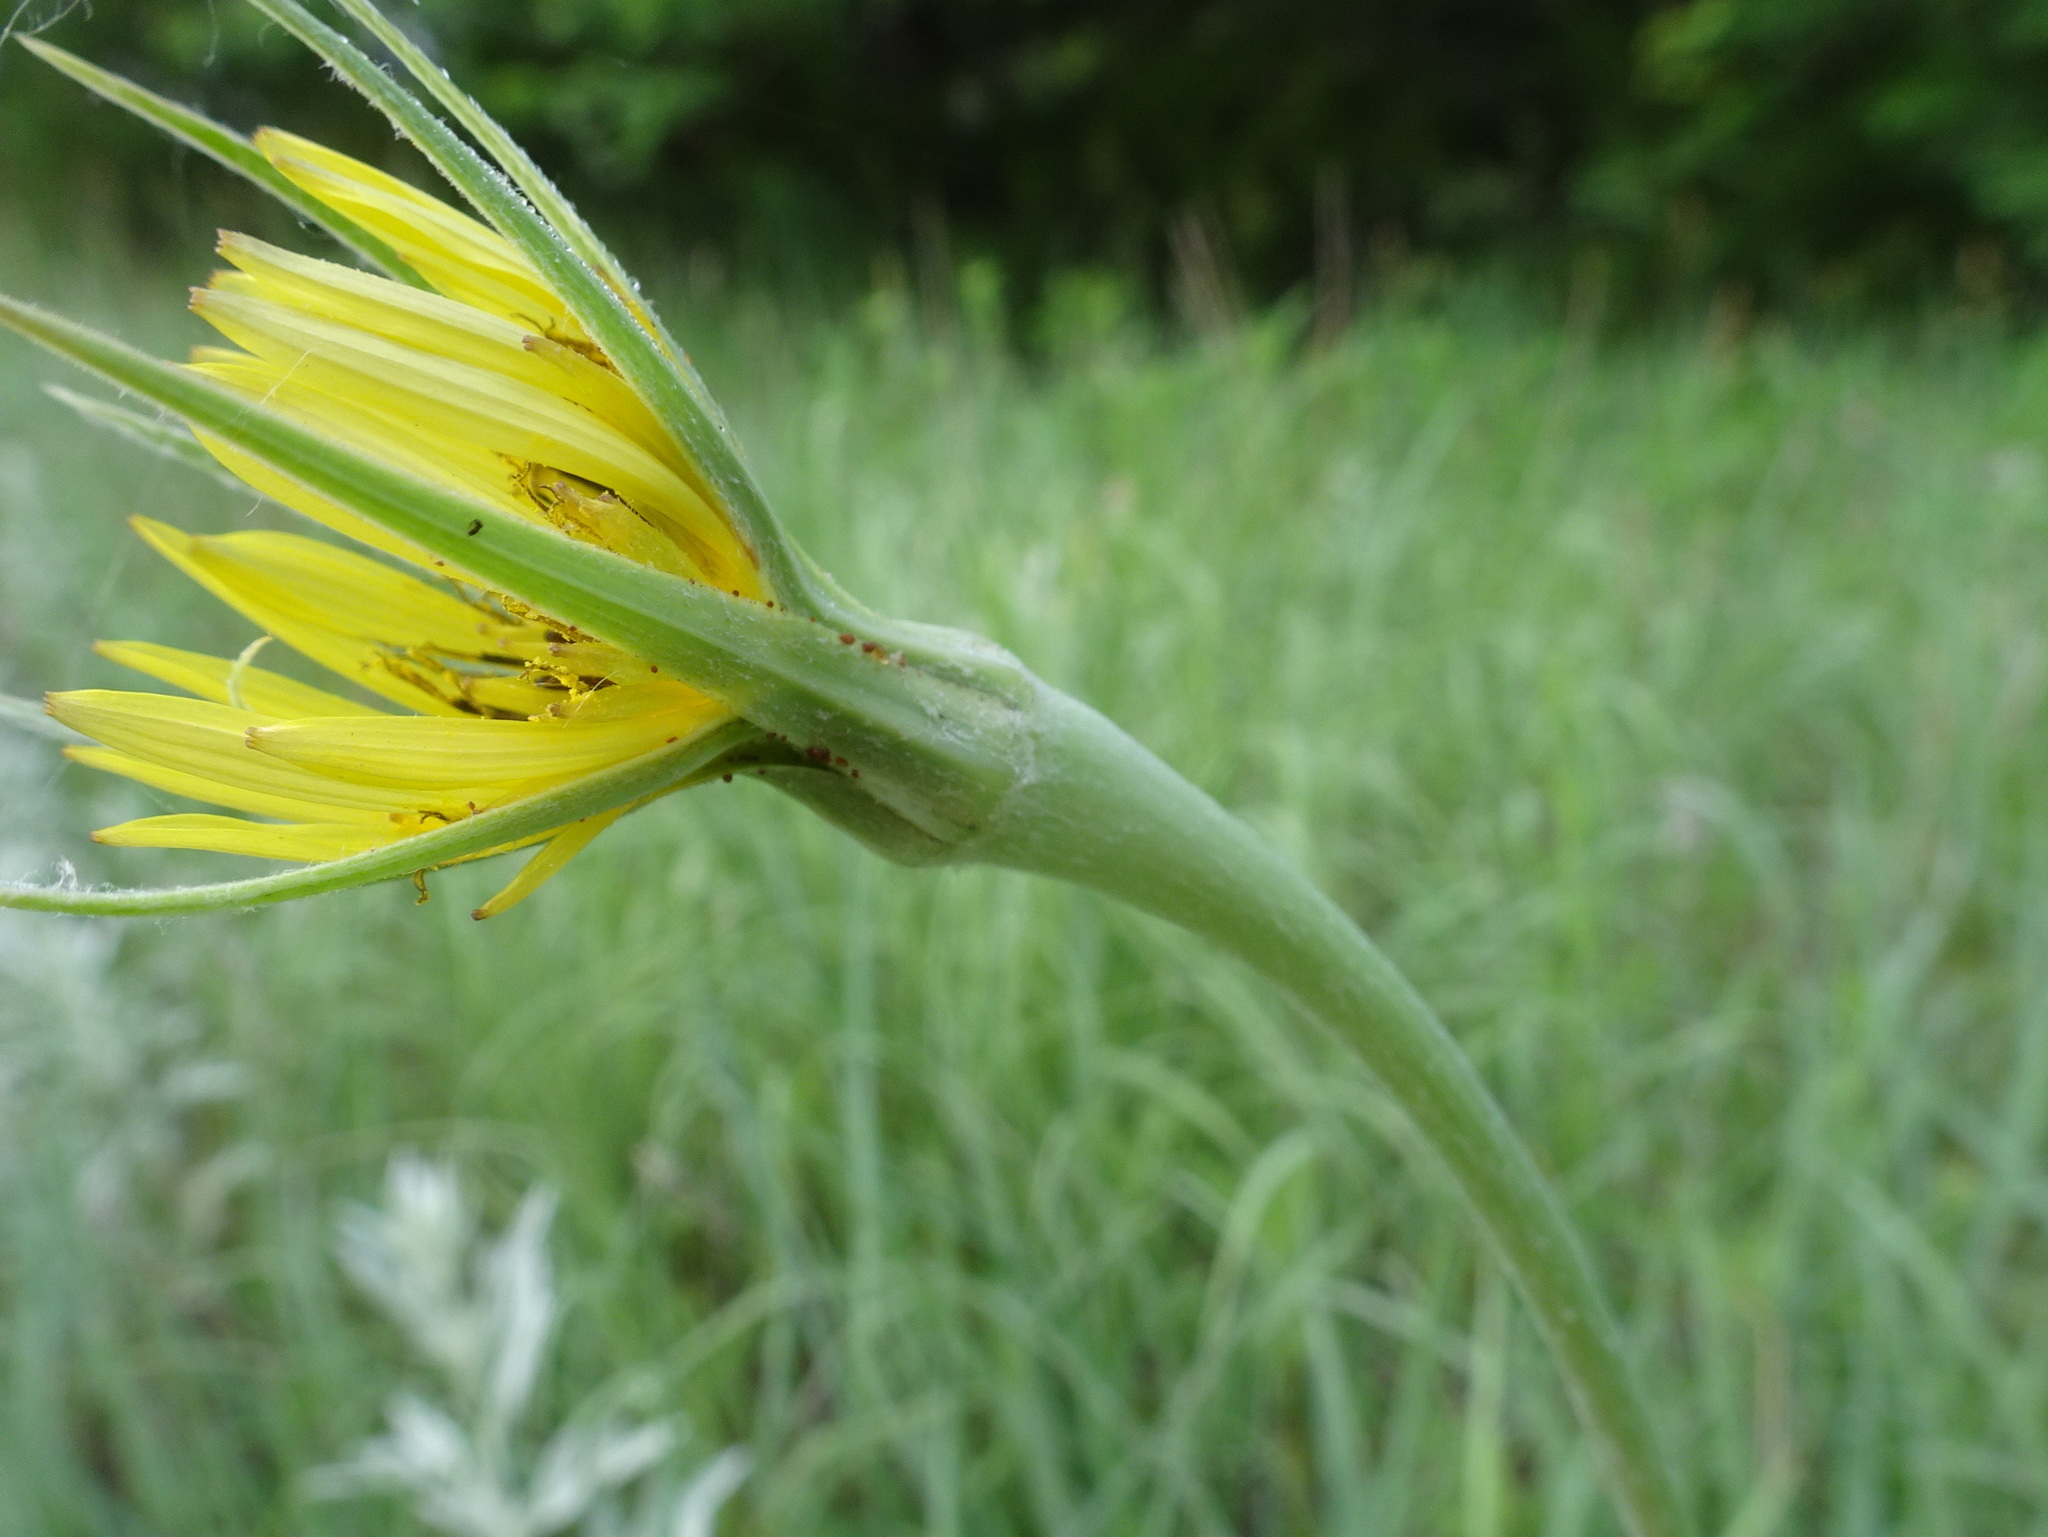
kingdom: Plantae
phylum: Tracheophyta
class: Magnoliopsida
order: Asterales
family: Asteraceae
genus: Tragopogon
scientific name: Tragopogon dubius
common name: Yellow salsify
